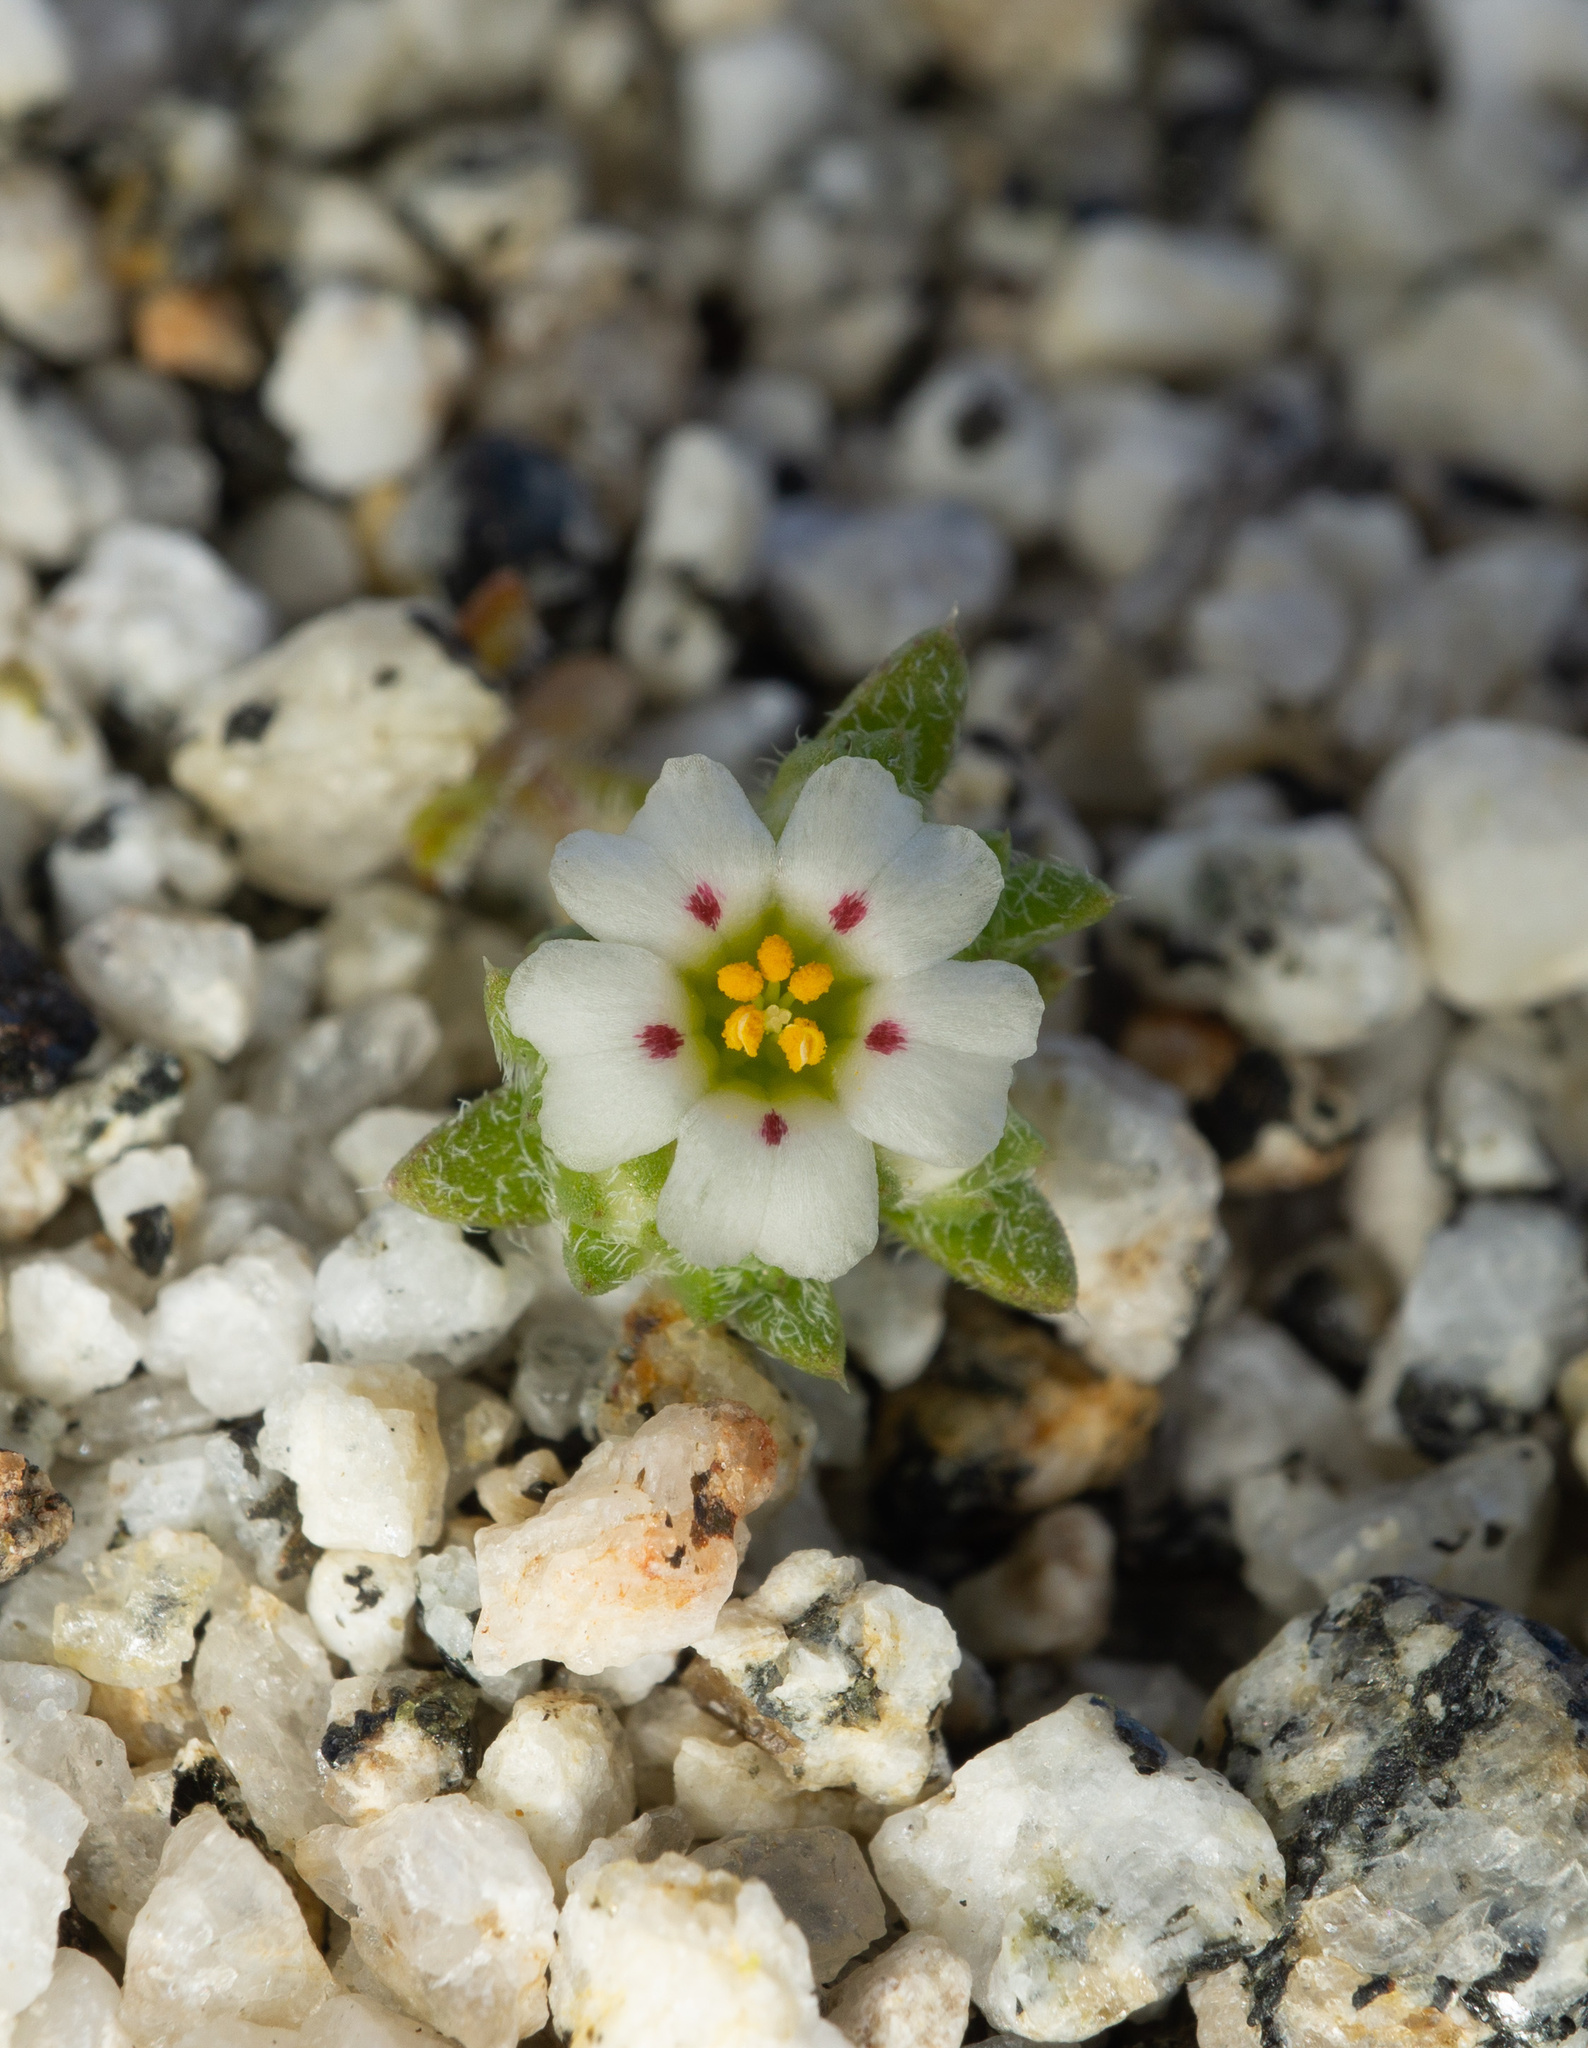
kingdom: Plantae
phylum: Tracheophyta
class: Magnoliopsida
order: Ericales
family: Polemoniaceae
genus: Maculigilia
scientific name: Maculigilia maculata
